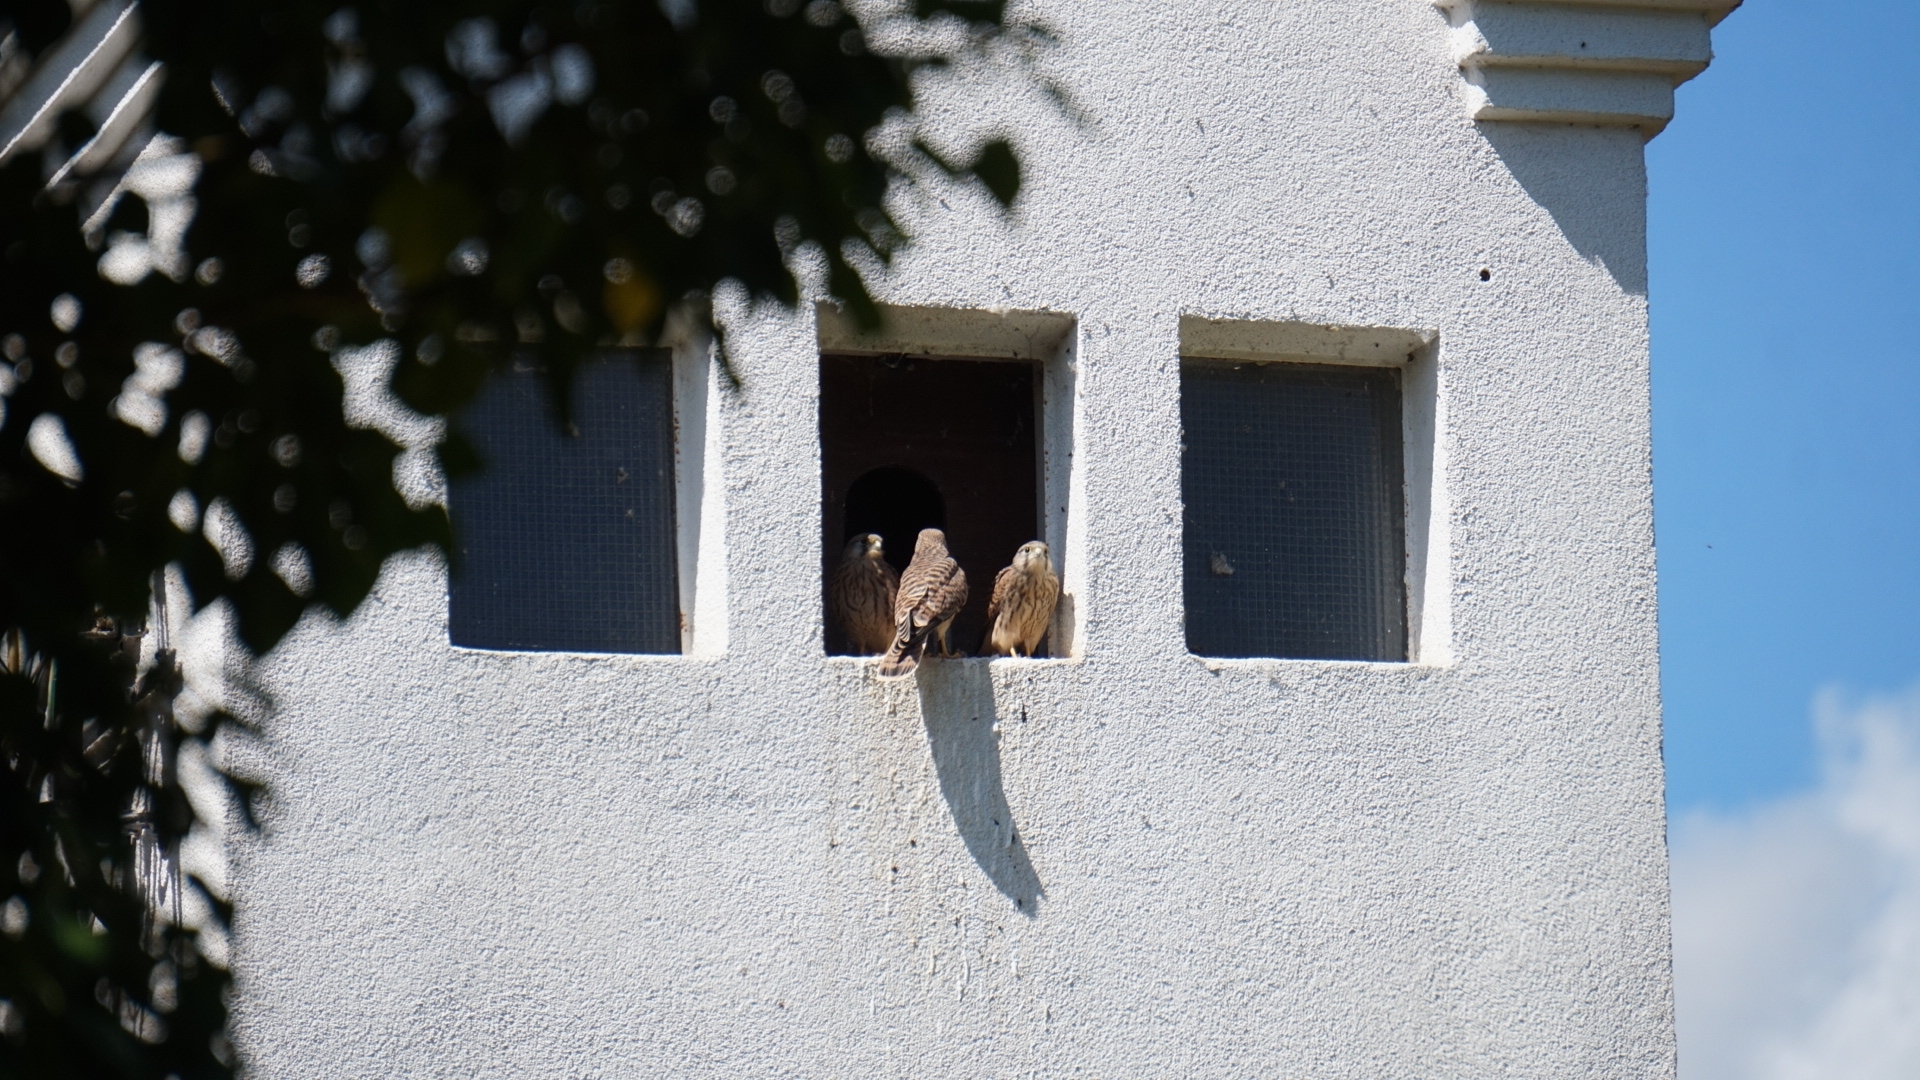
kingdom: Animalia
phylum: Chordata
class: Aves
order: Falconiformes
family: Falconidae
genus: Falco
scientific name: Falco tinnunculus
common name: Common kestrel
